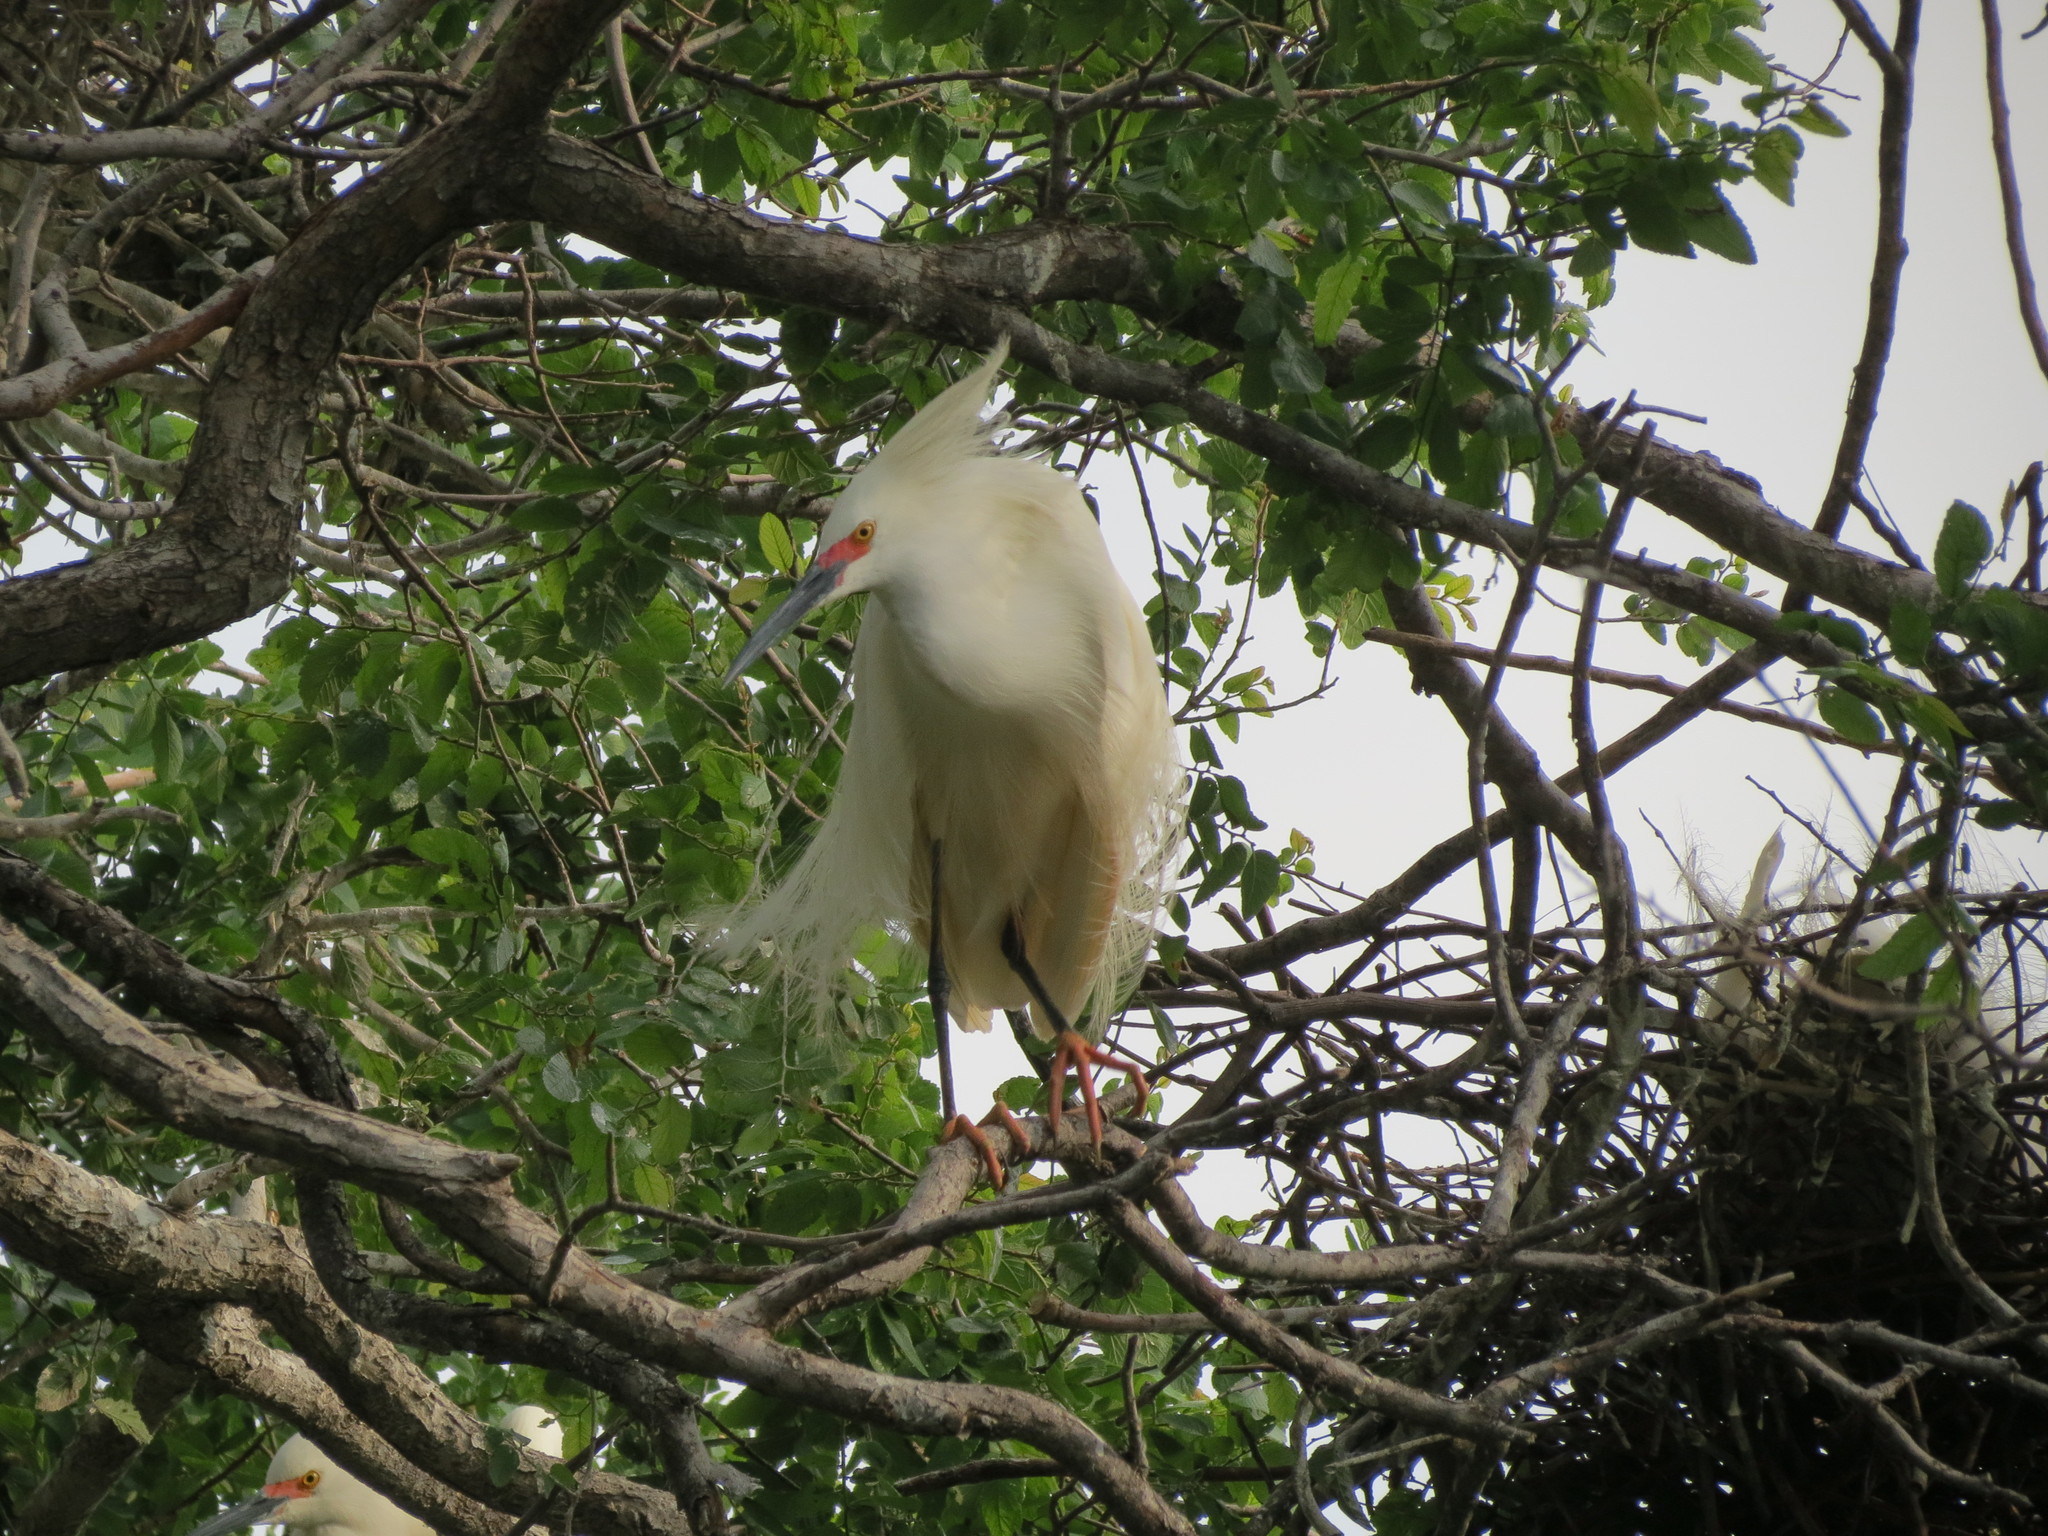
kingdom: Animalia
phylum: Chordata
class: Aves
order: Pelecaniformes
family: Ardeidae
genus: Egretta
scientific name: Egretta thula
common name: Snowy egret
